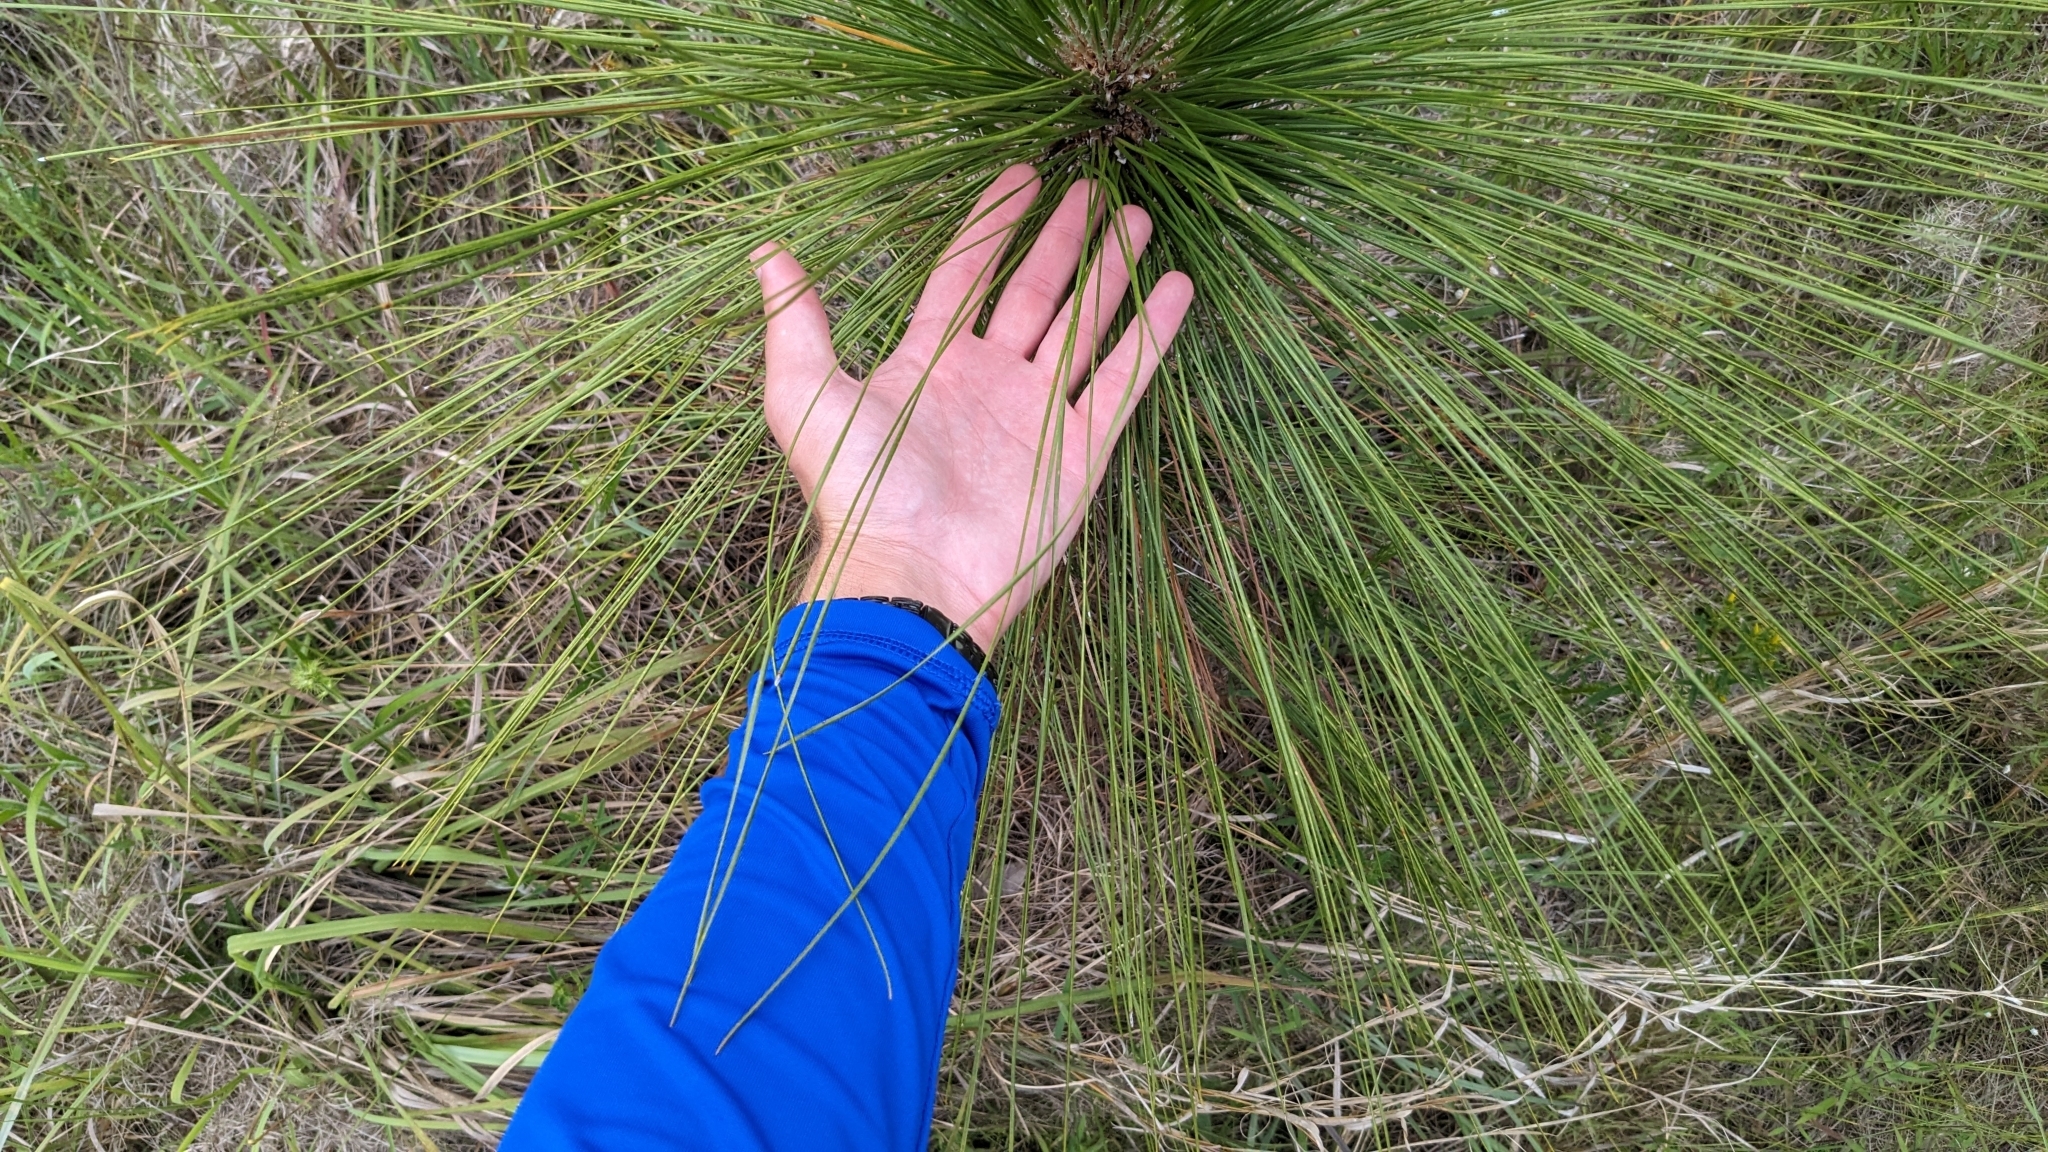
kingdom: Plantae
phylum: Tracheophyta
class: Pinopsida
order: Pinales
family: Pinaceae
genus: Pinus
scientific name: Pinus palustris
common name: Longleaf pine
